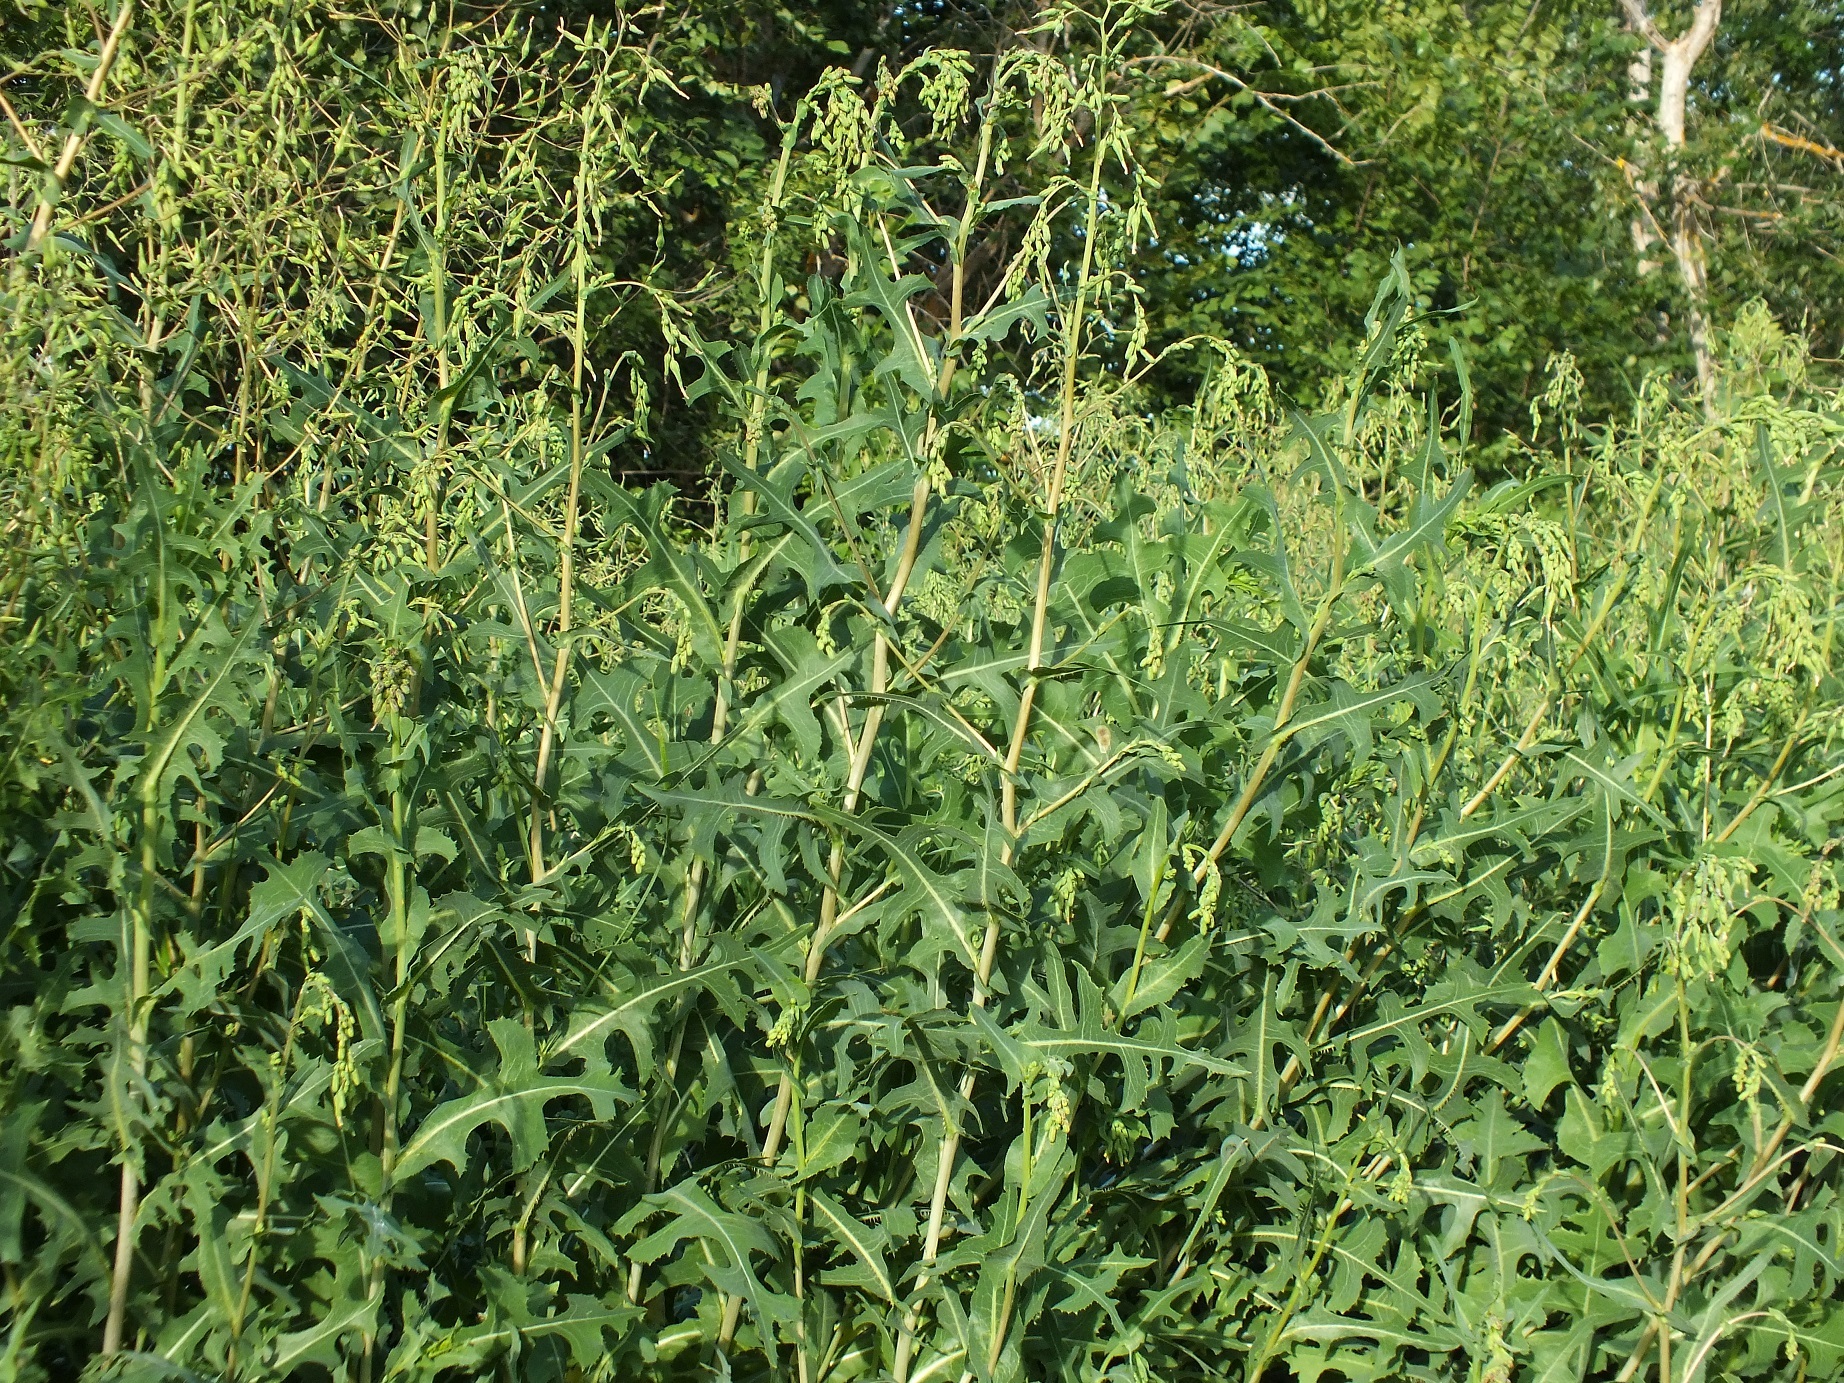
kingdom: Plantae
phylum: Tracheophyta
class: Magnoliopsida
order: Asterales
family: Asteraceae
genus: Lactuca
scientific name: Lactuca serriola
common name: Prickly lettuce
